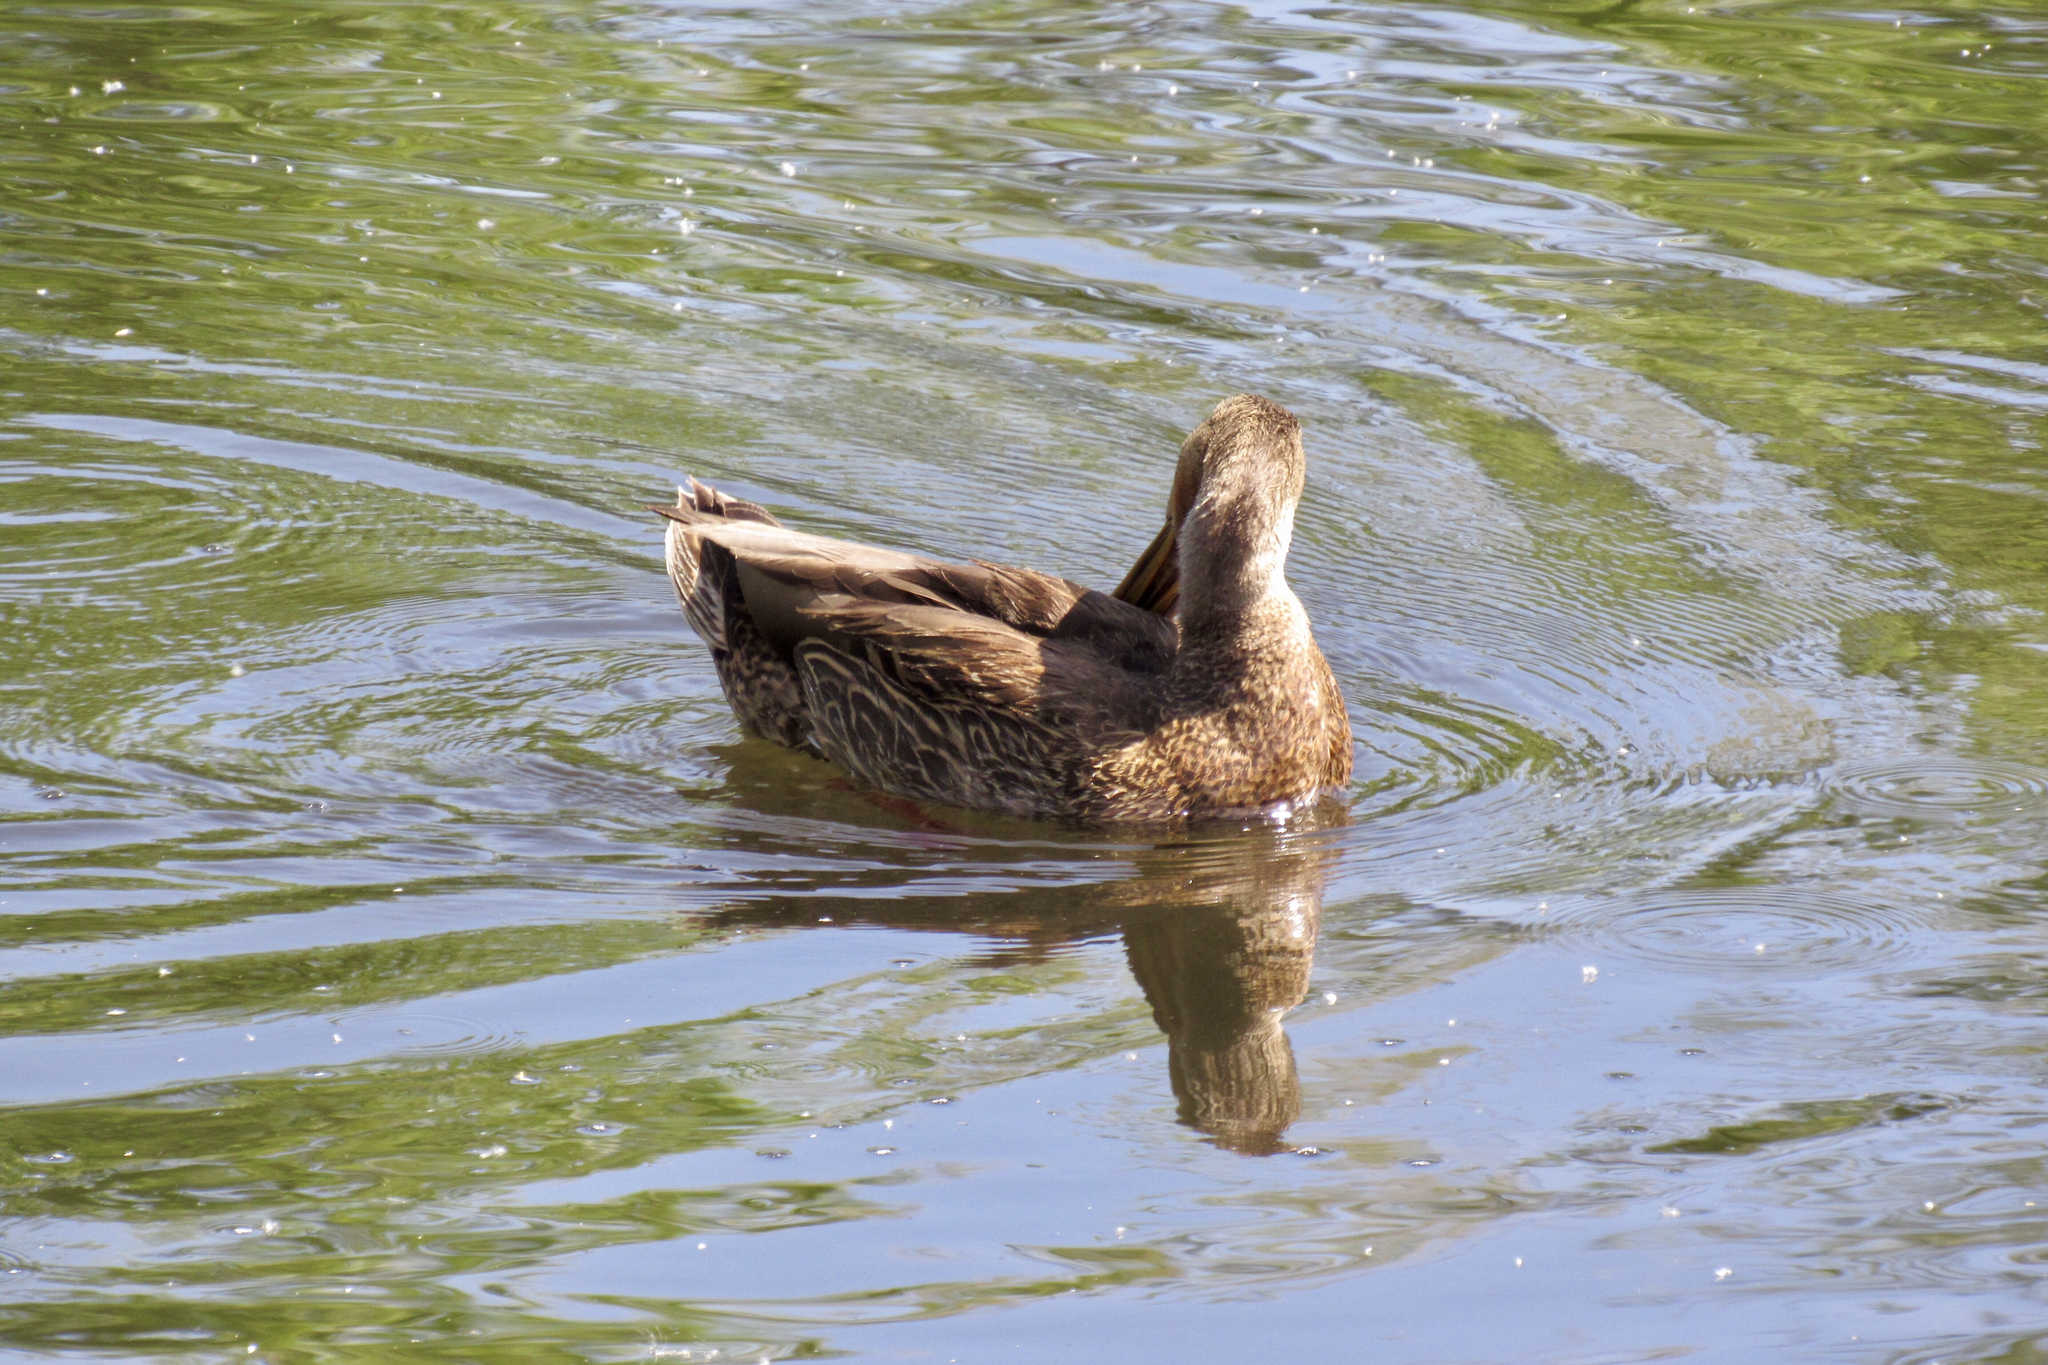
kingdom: Animalia
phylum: Chordata
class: Aves
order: Anseriformes
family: Anatidae
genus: Anas
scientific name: Anas platyrhynchos
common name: Mallard
